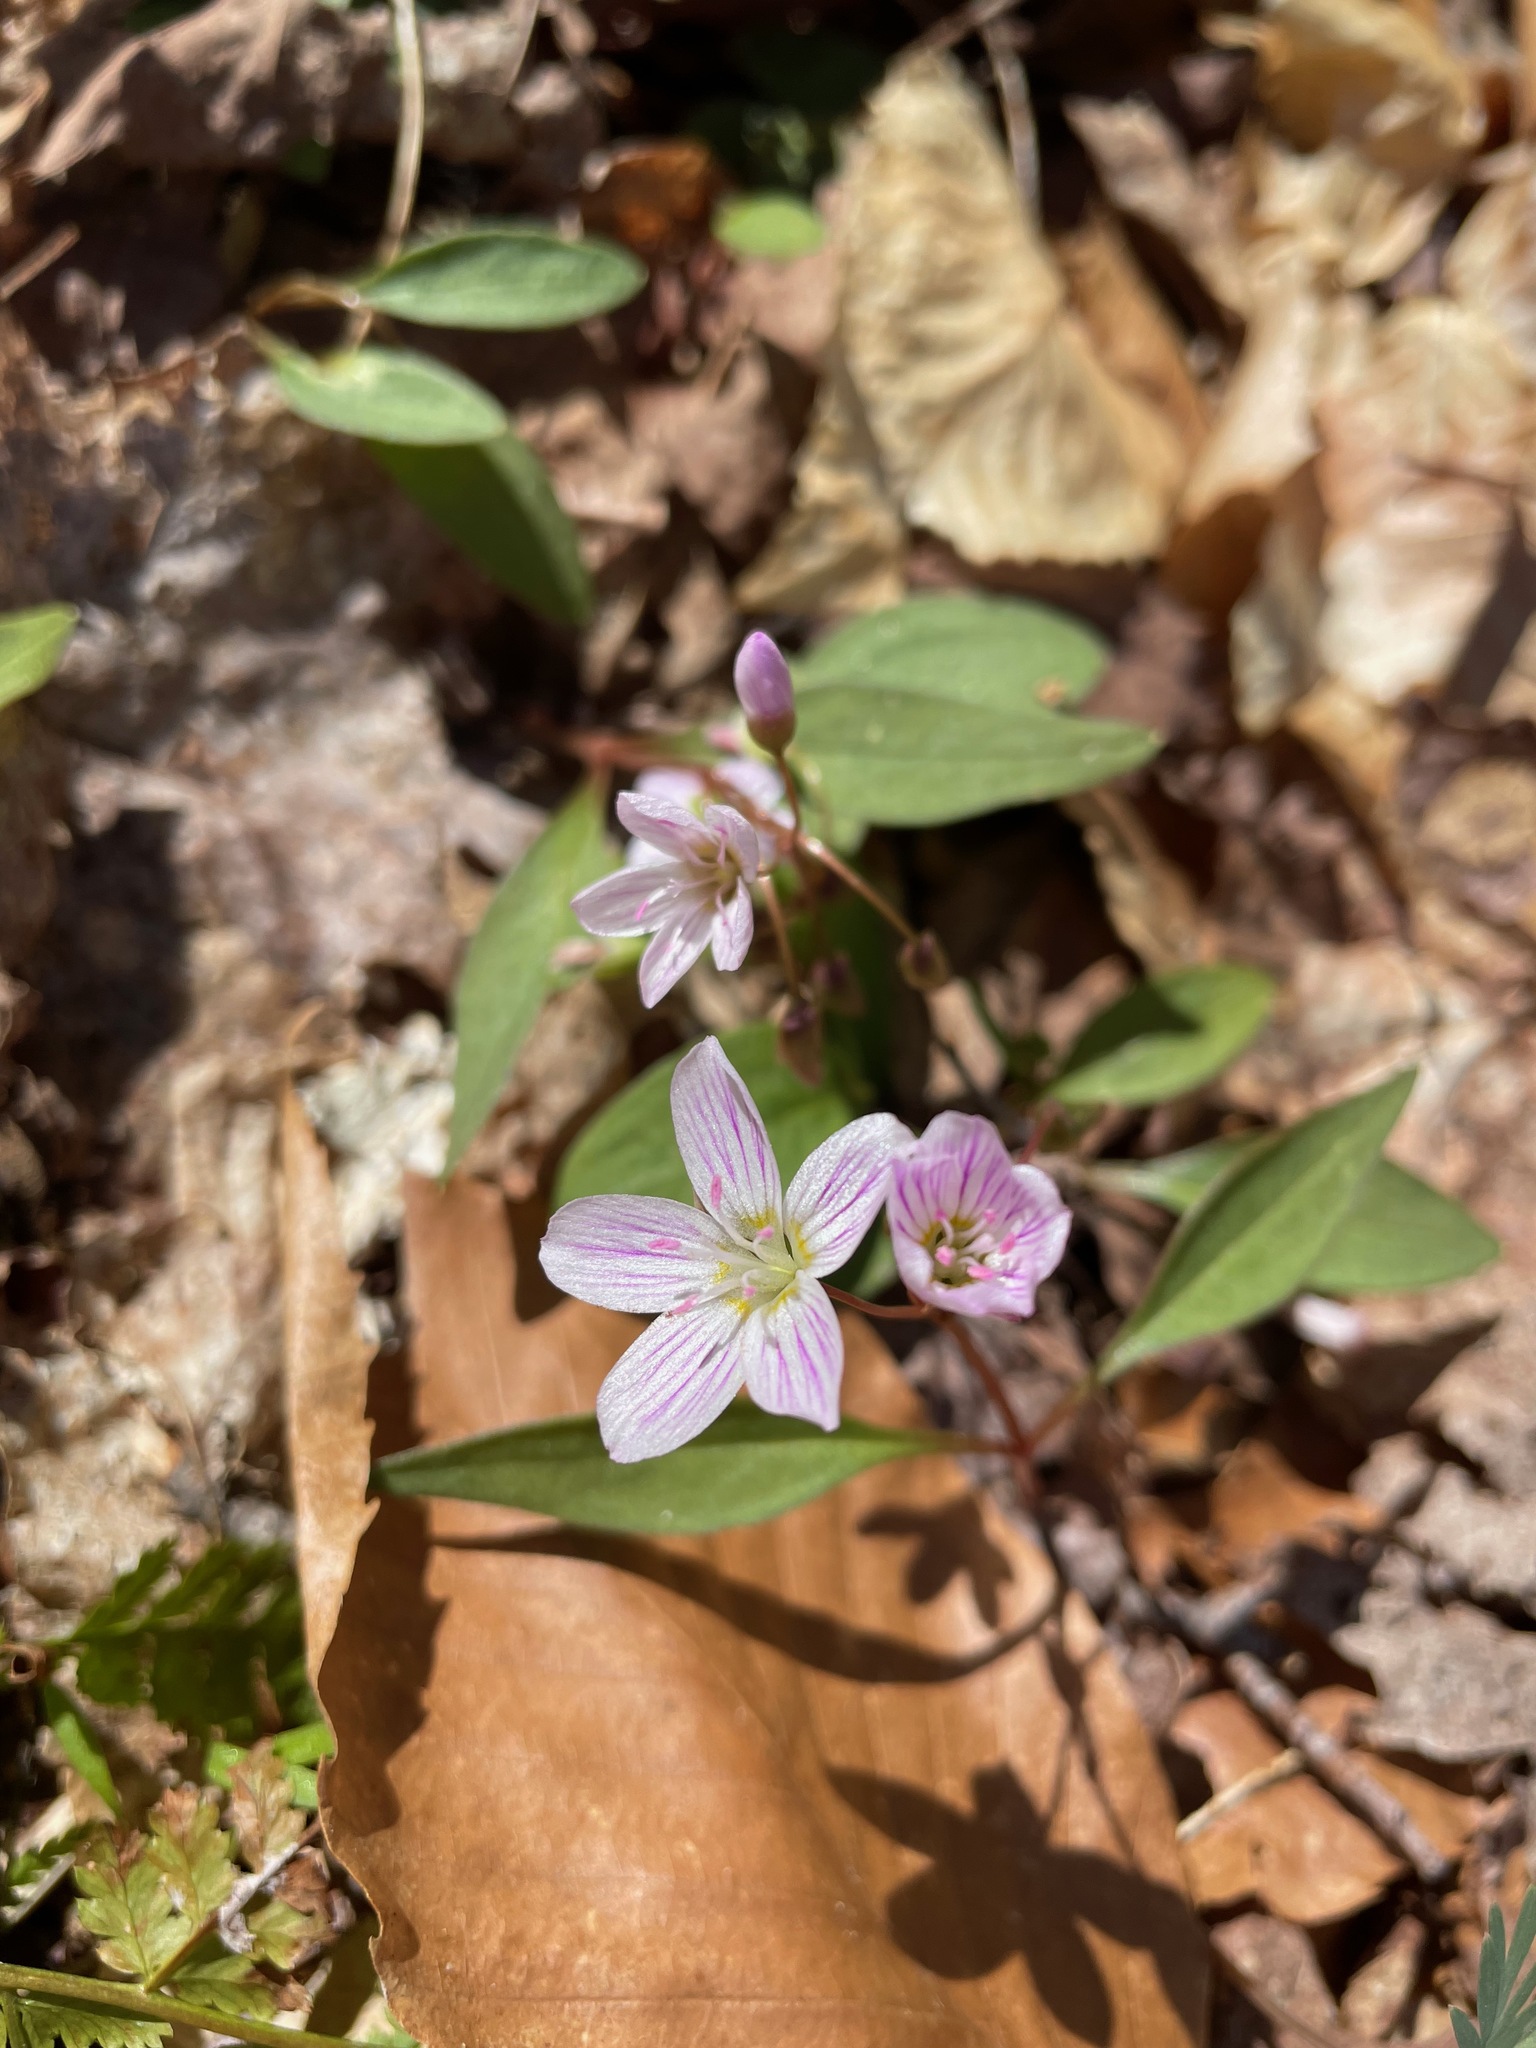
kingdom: Plantae
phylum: Tracheophyta
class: Magnoliopsida
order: Caryophyllales
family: Montiaceae
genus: Claytonia
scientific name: Claytonia caroliniana
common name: Carolina spring beauty
